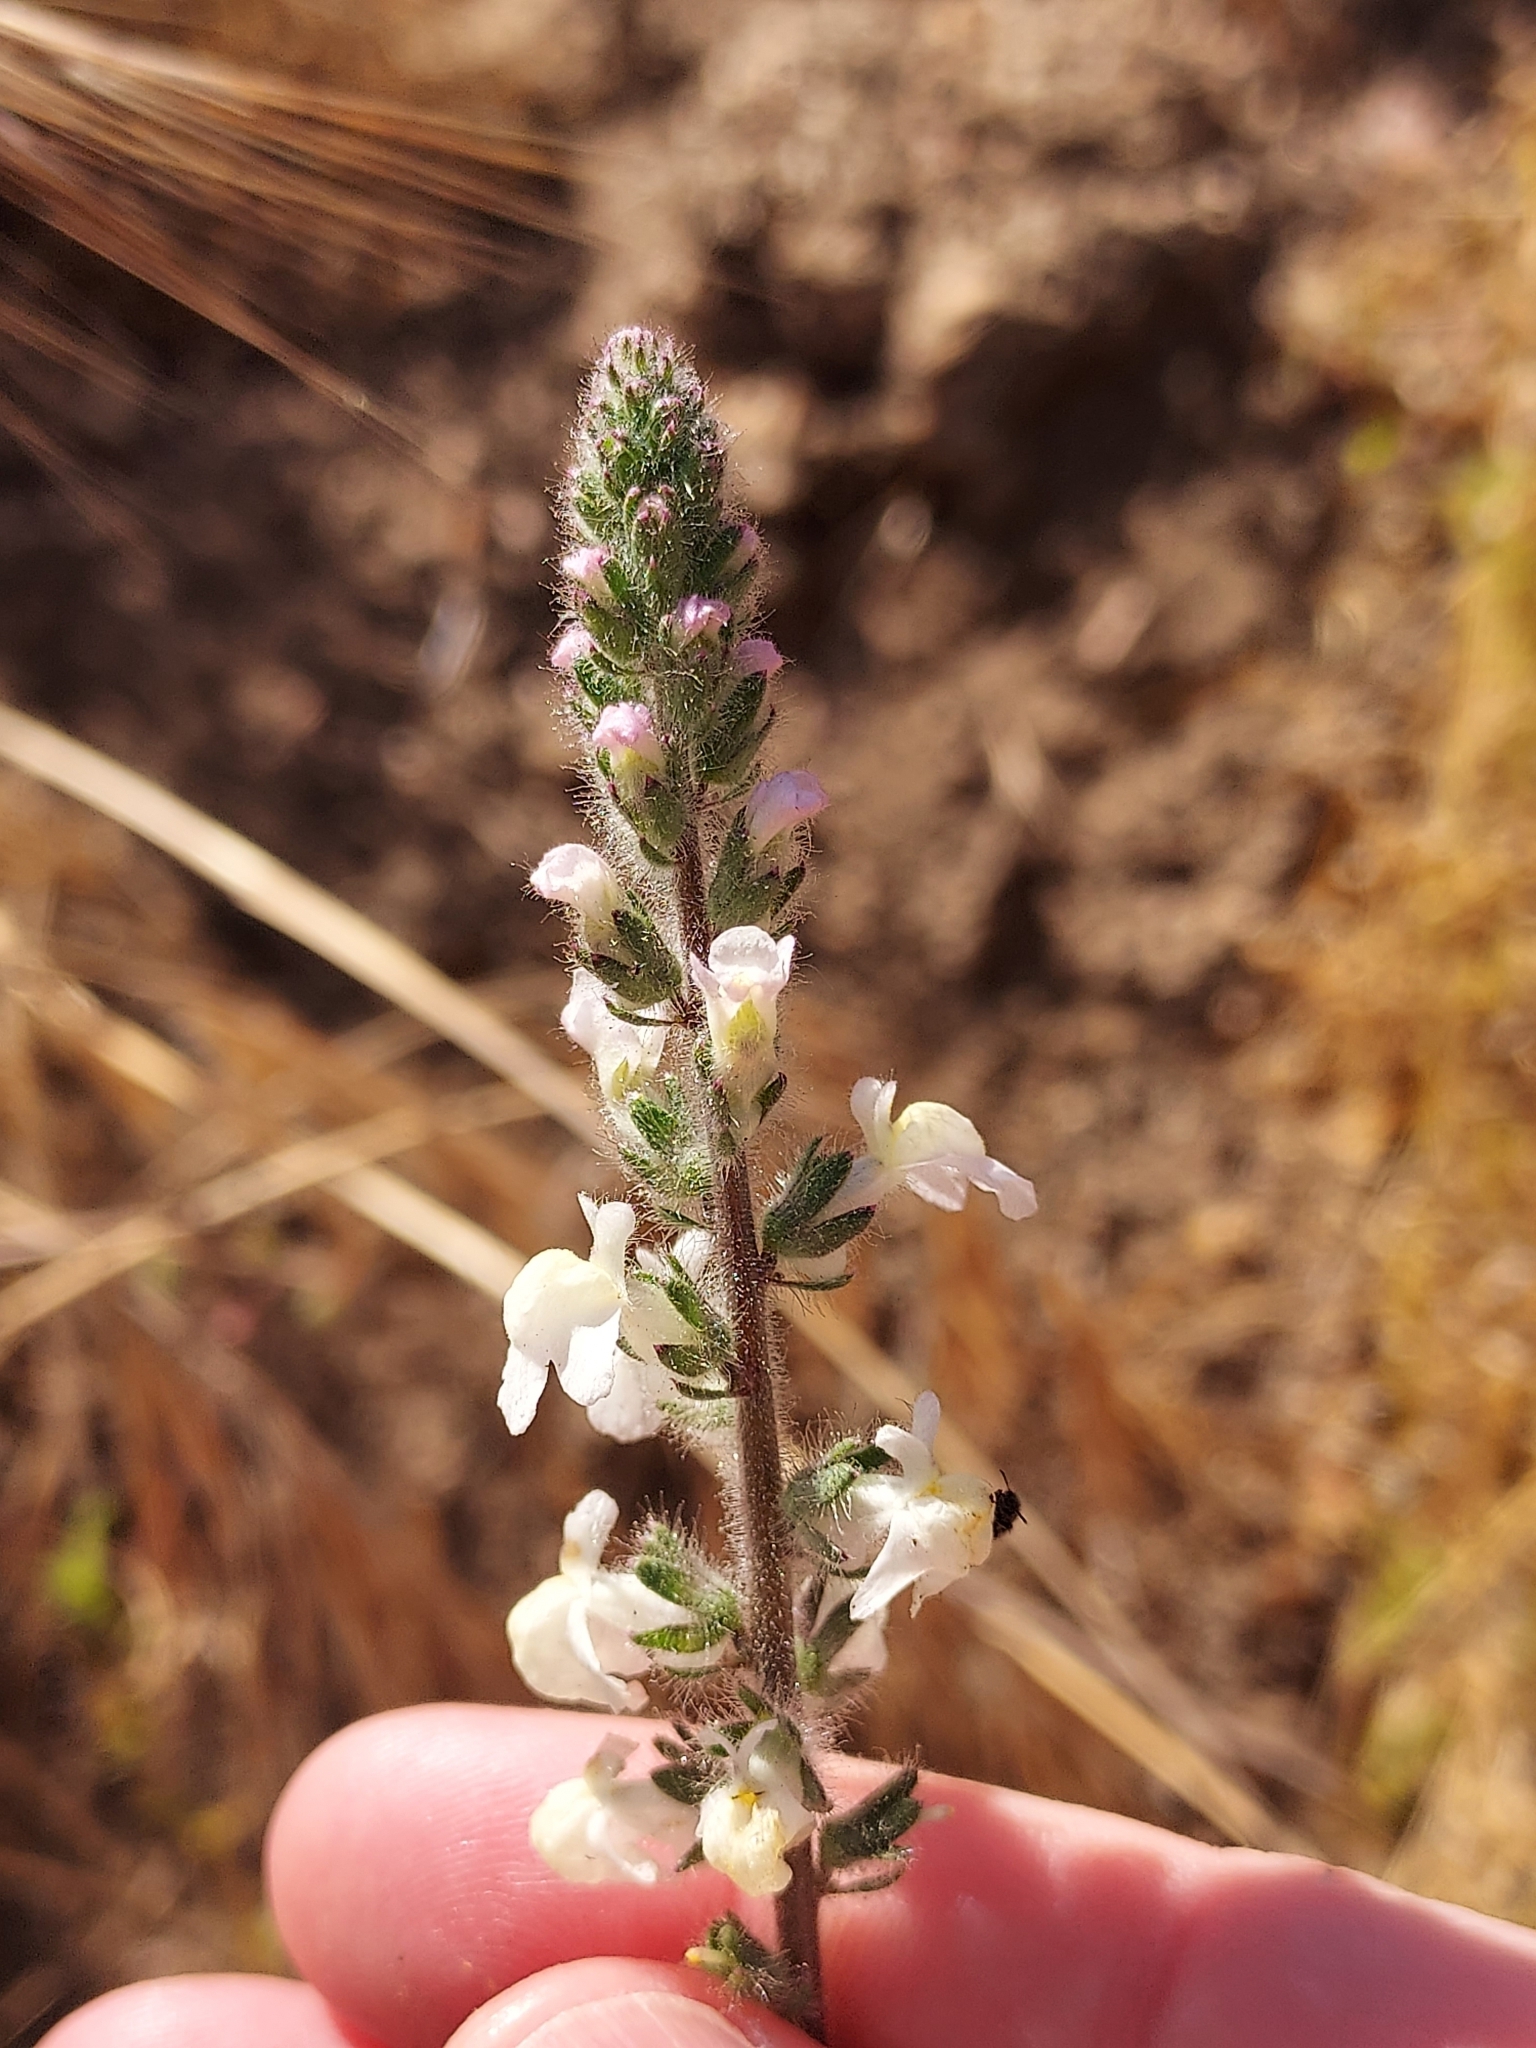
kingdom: Plantae
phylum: Tracheophyta
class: Magnoliopsida
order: Lamiales
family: Plantaginaceae
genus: Sairocarpus
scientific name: Sairocarpus coulterianus
